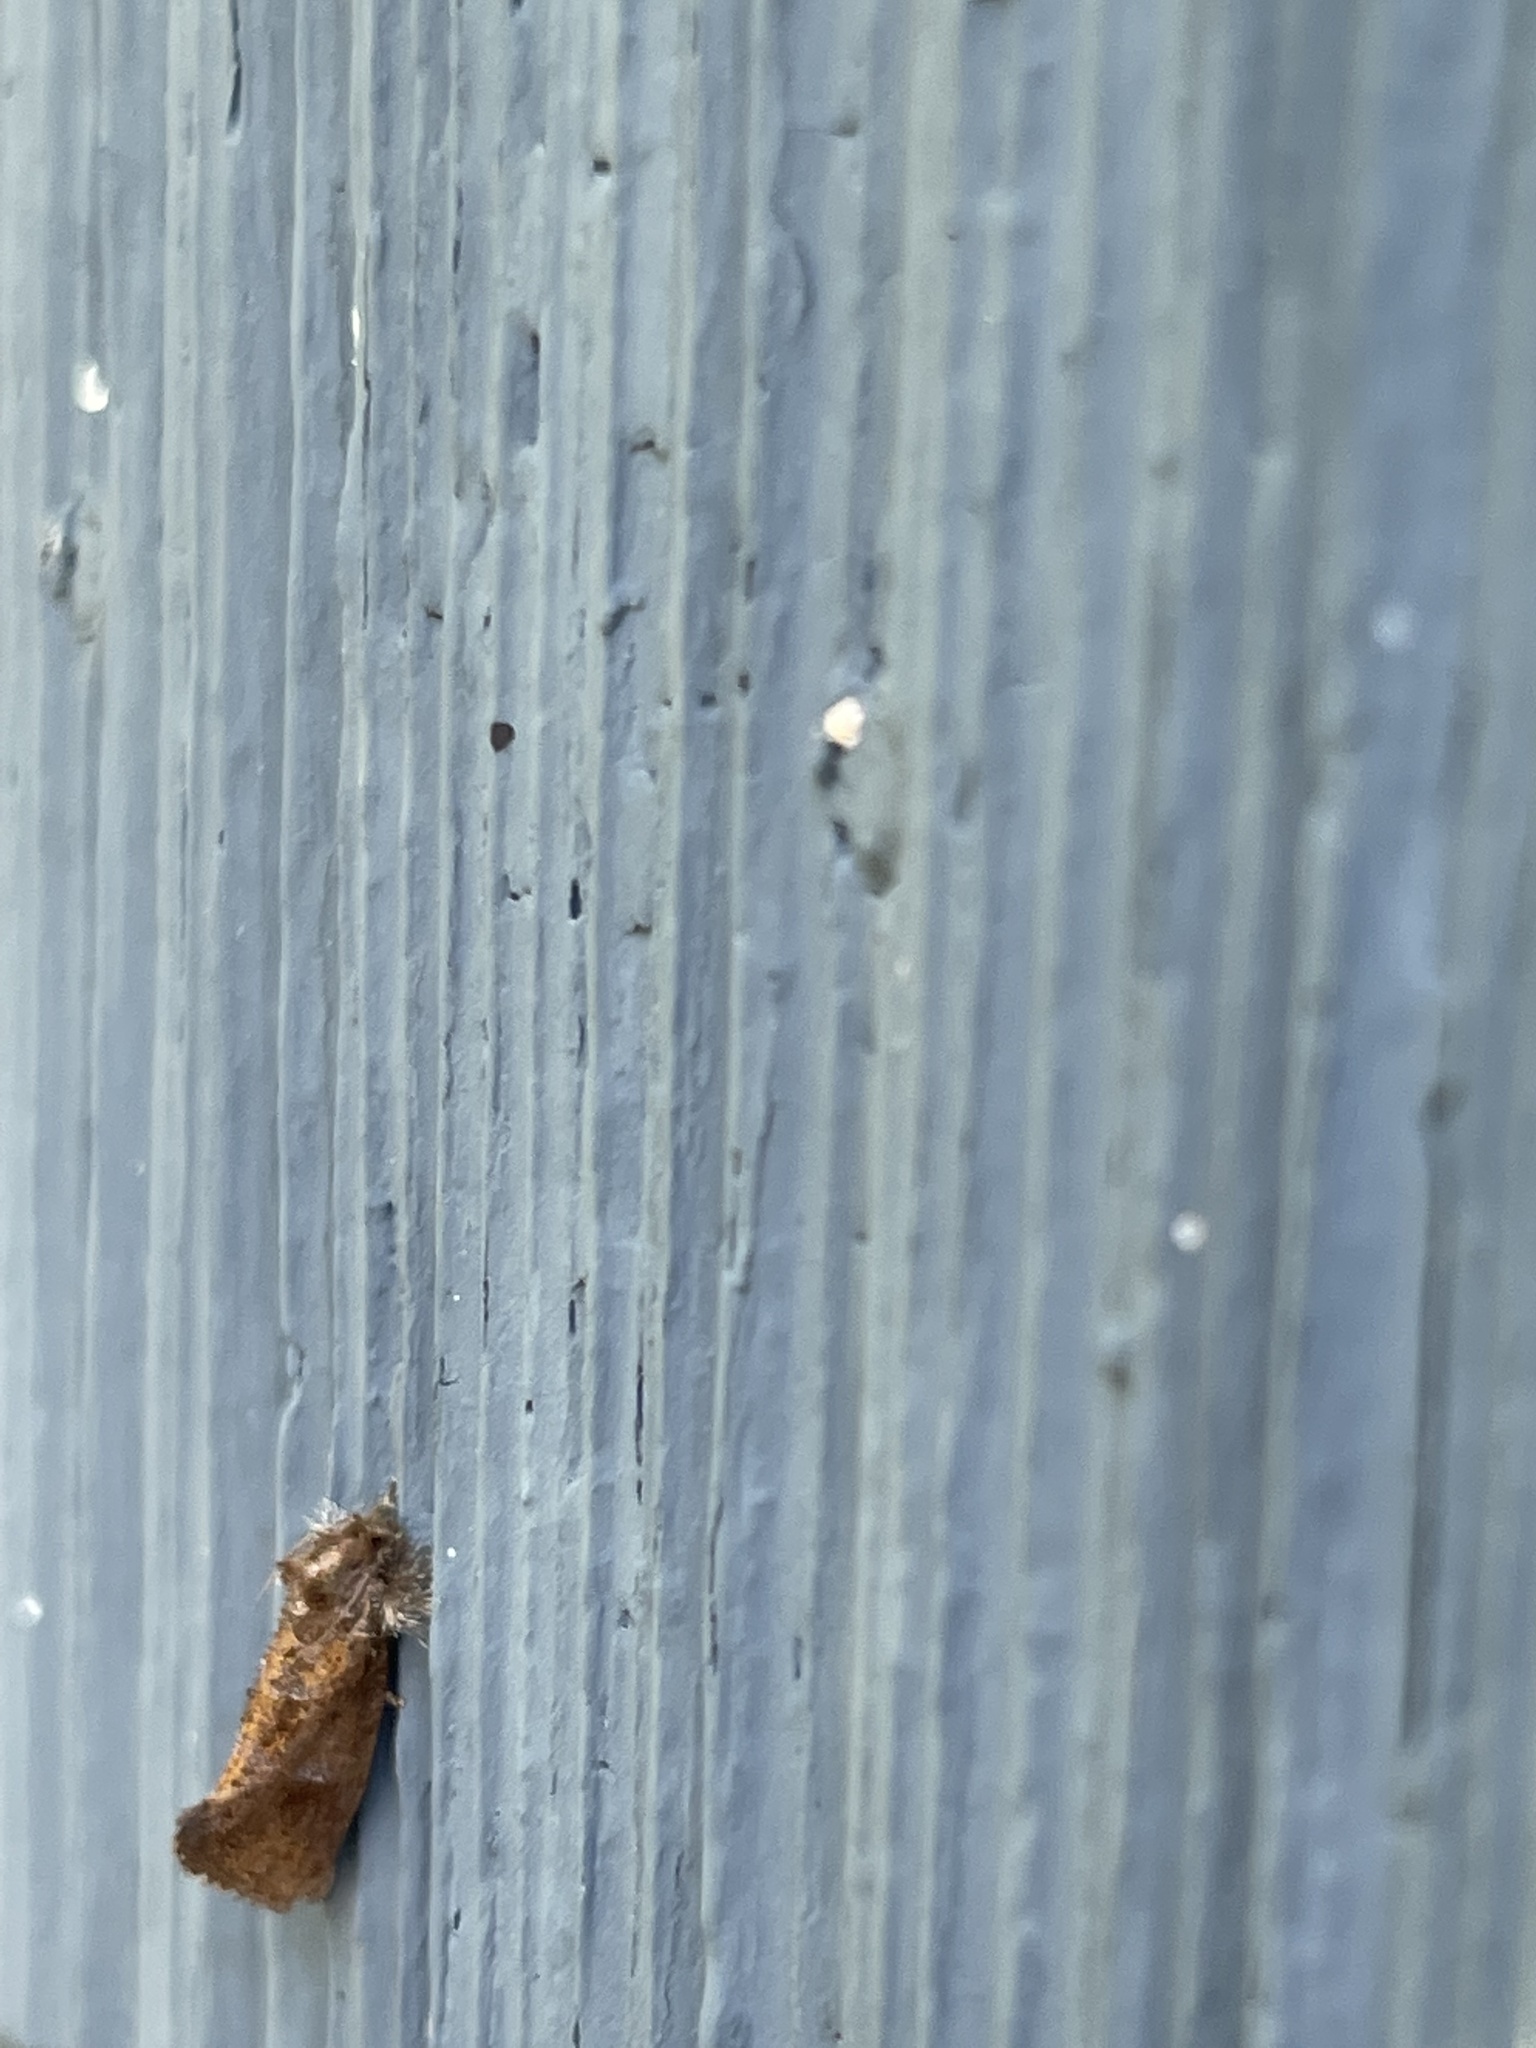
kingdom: Animalia
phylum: Arthropoda
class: Insecta
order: Lepidoptera
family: Tineidae
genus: Acrolophus
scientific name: Acrolophus panamae
